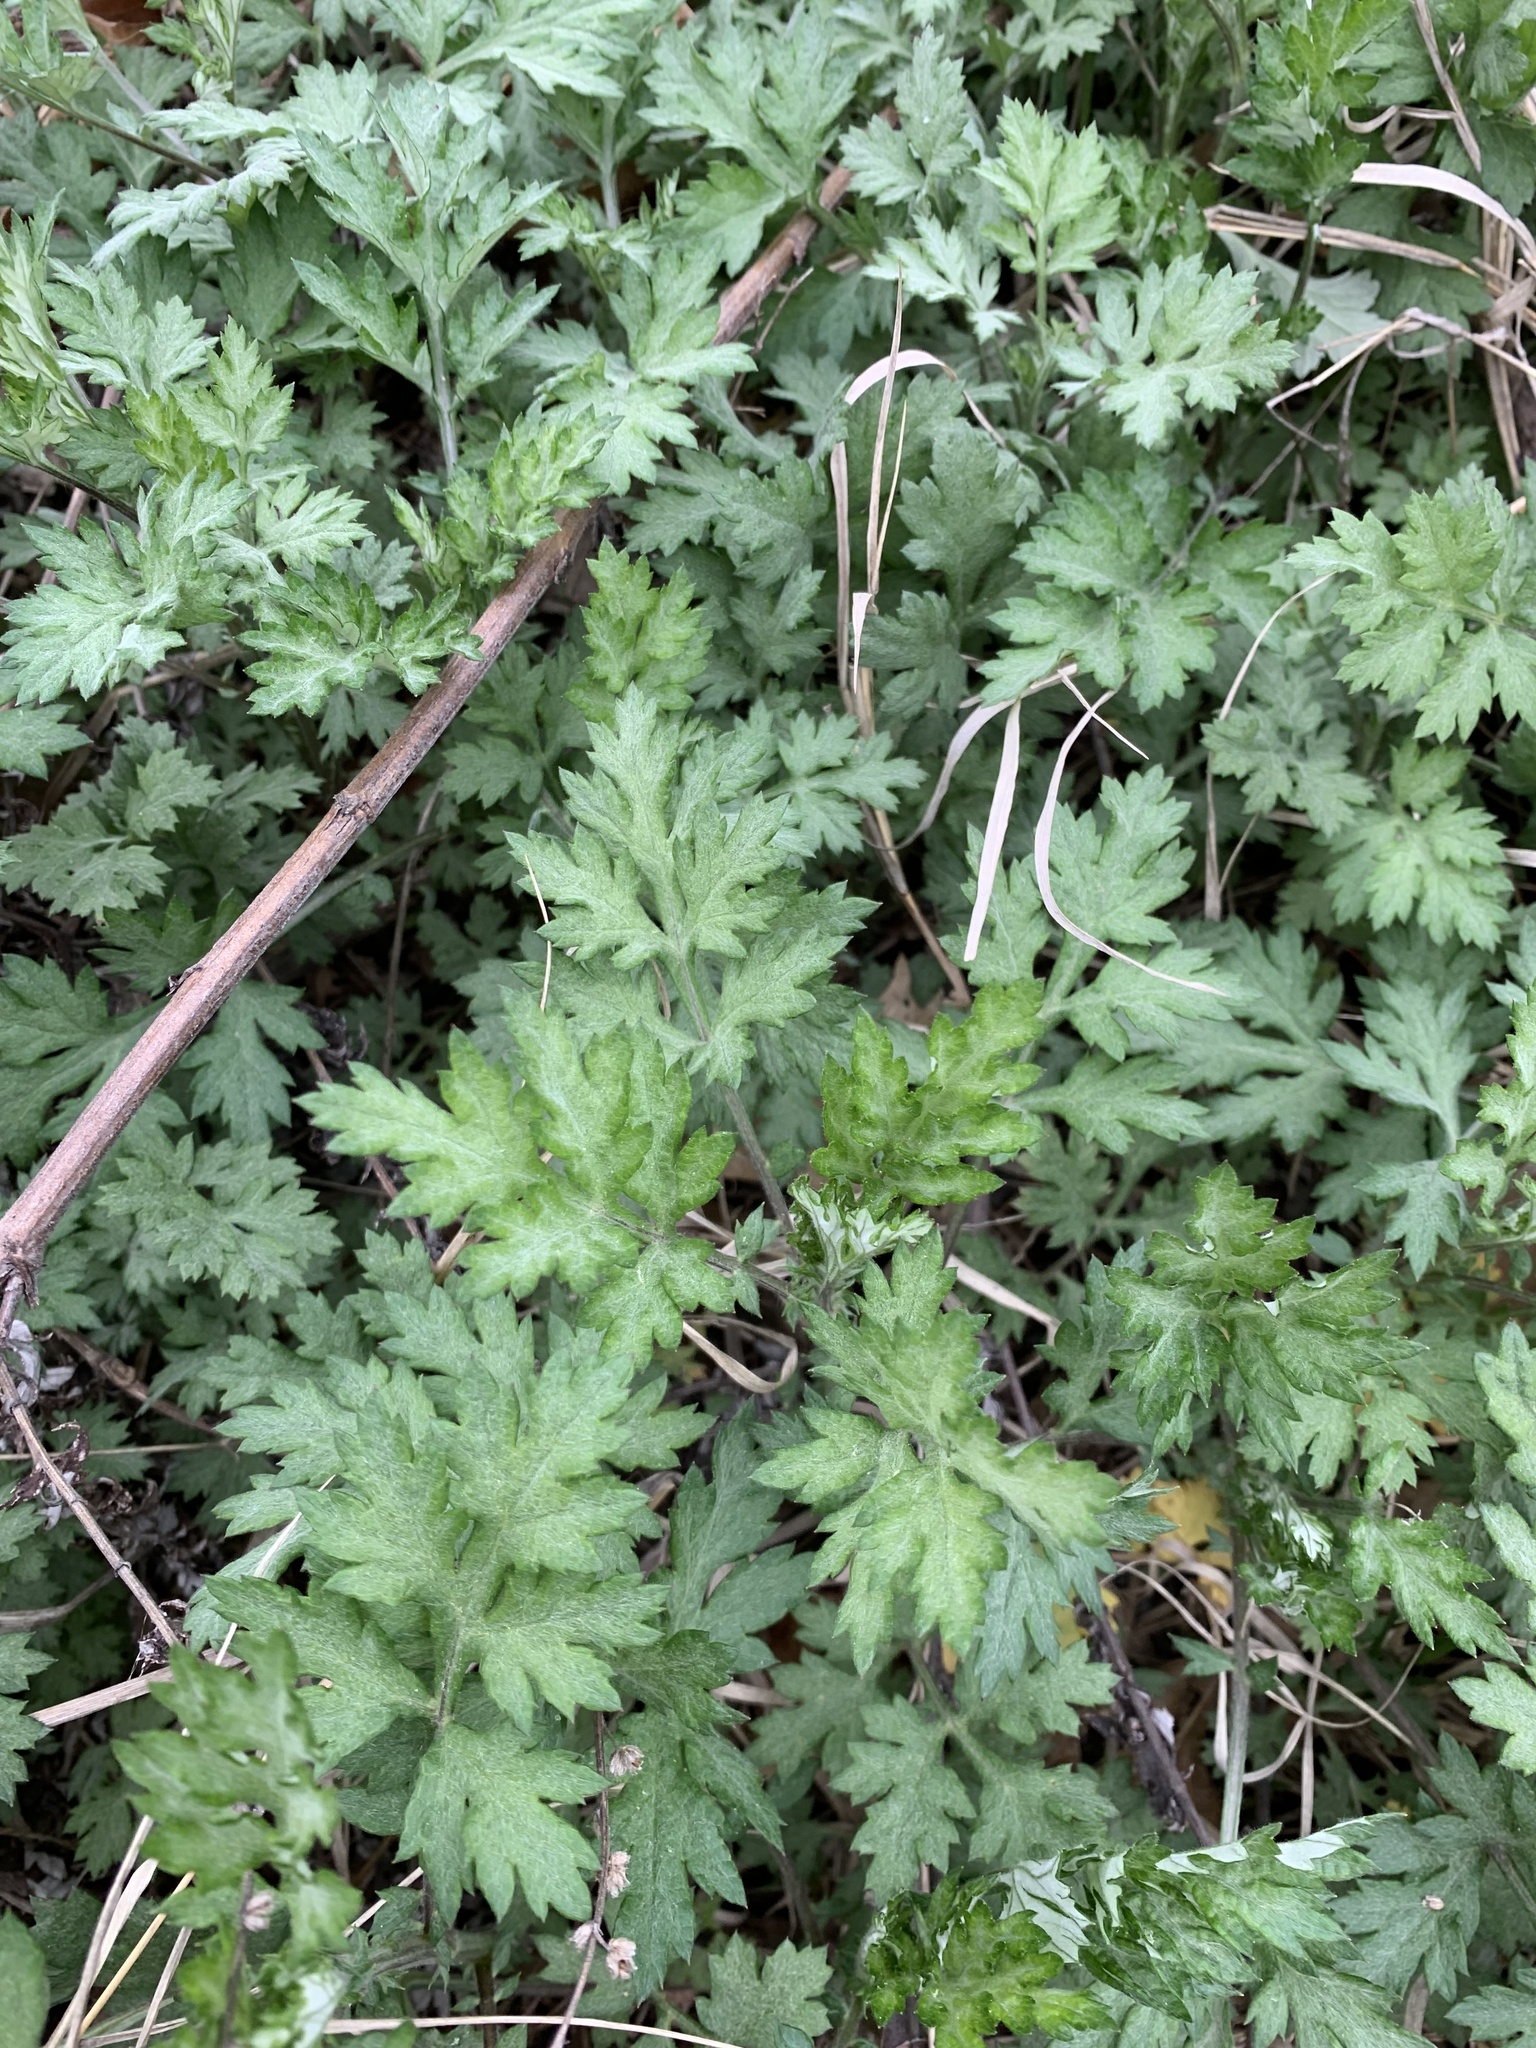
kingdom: Plantae
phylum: Tracheophyta
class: Magnoliopsida
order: Asterales
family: Asteraceae
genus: Artemisia
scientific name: Artemisia vulgaris
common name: Mugwort
